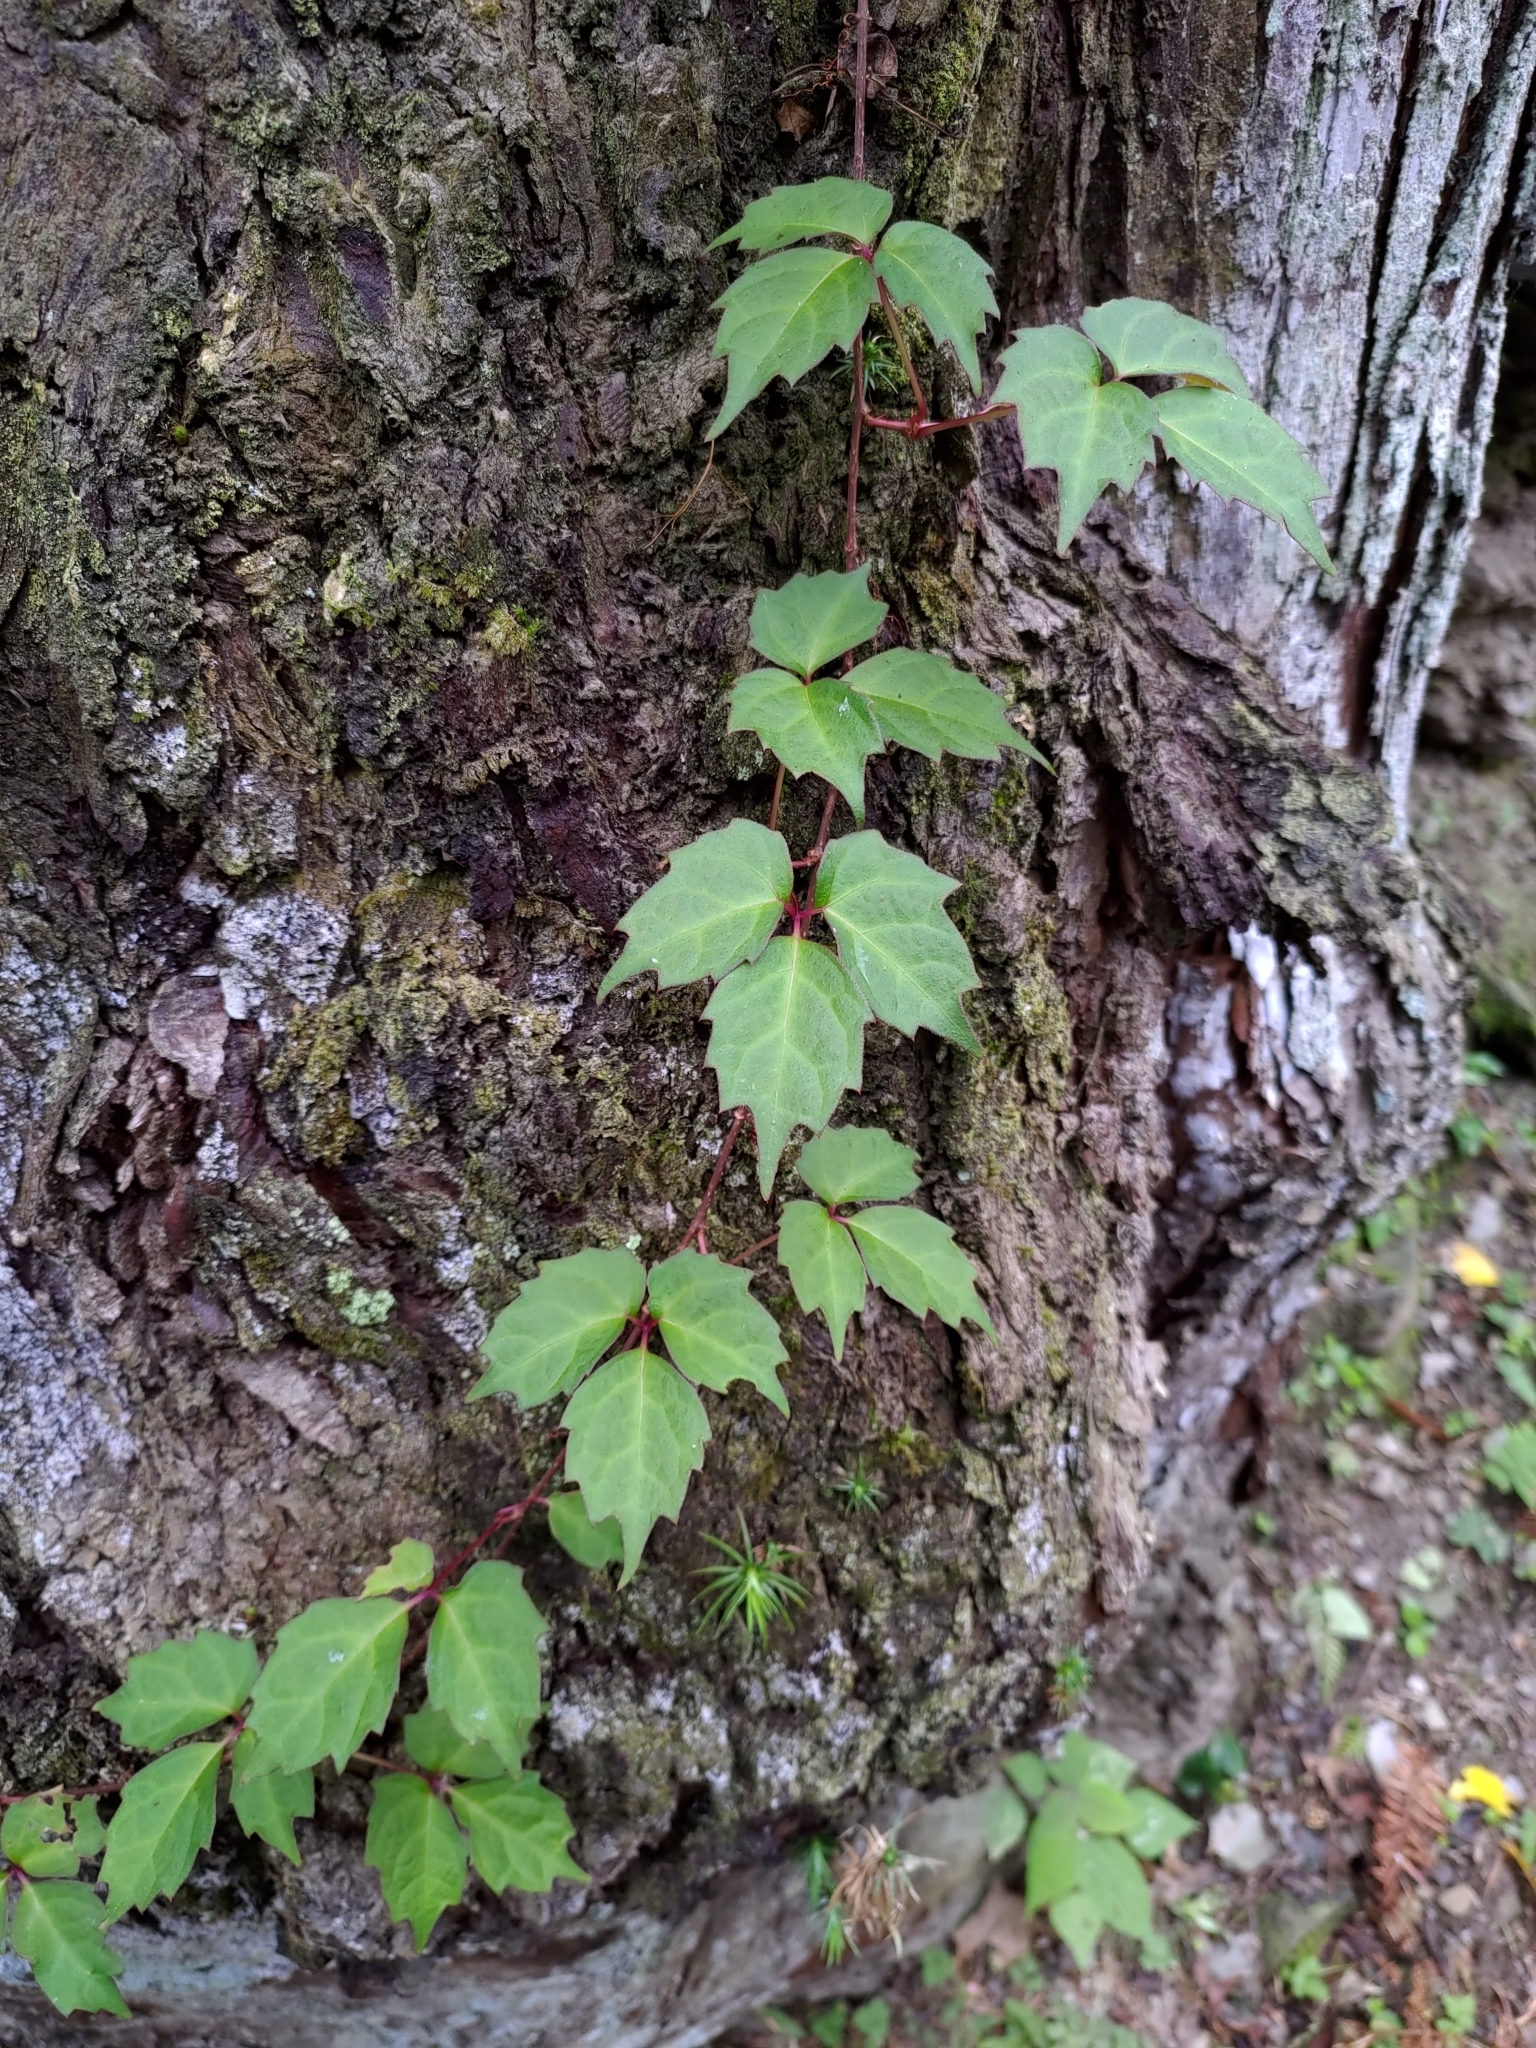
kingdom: Plantae
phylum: Tracheophyta
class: Magnoliopsida
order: Vitales
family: Vitaceae
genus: Parthenocissus
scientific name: Parthenocissus tricuspidata
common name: Boston ivy
